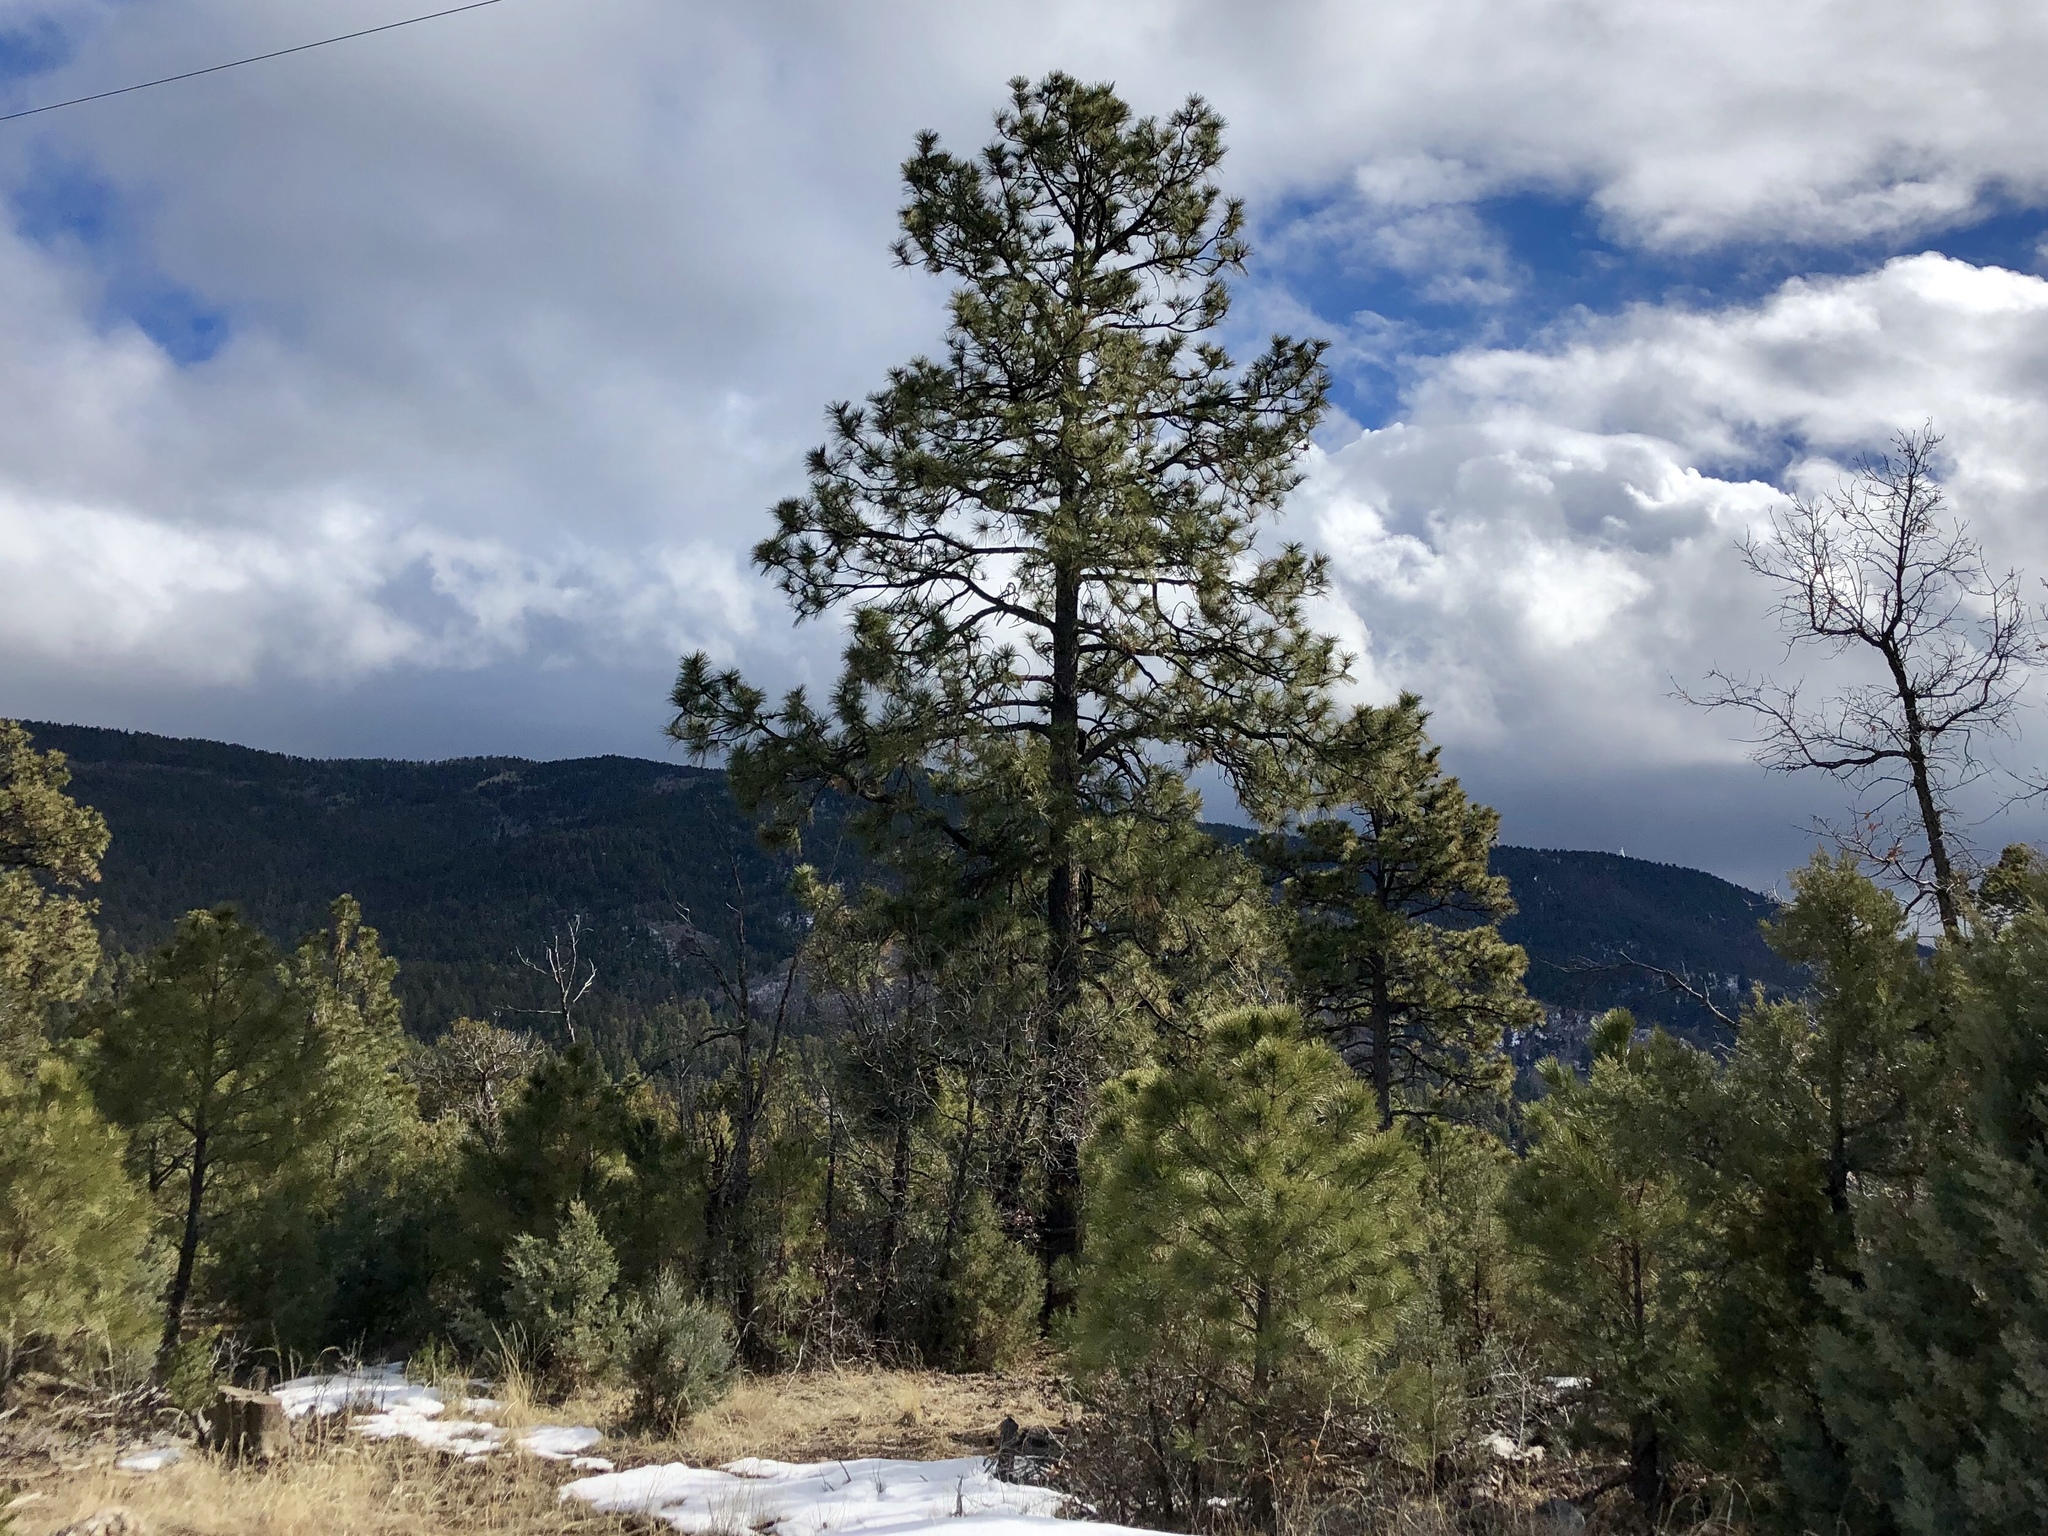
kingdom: Plantae
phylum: Tracheophyta
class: Pinopsida
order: Pinales
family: Pinaceae
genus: Pinus
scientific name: Pinus ponderosa
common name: Western yellow-pine
